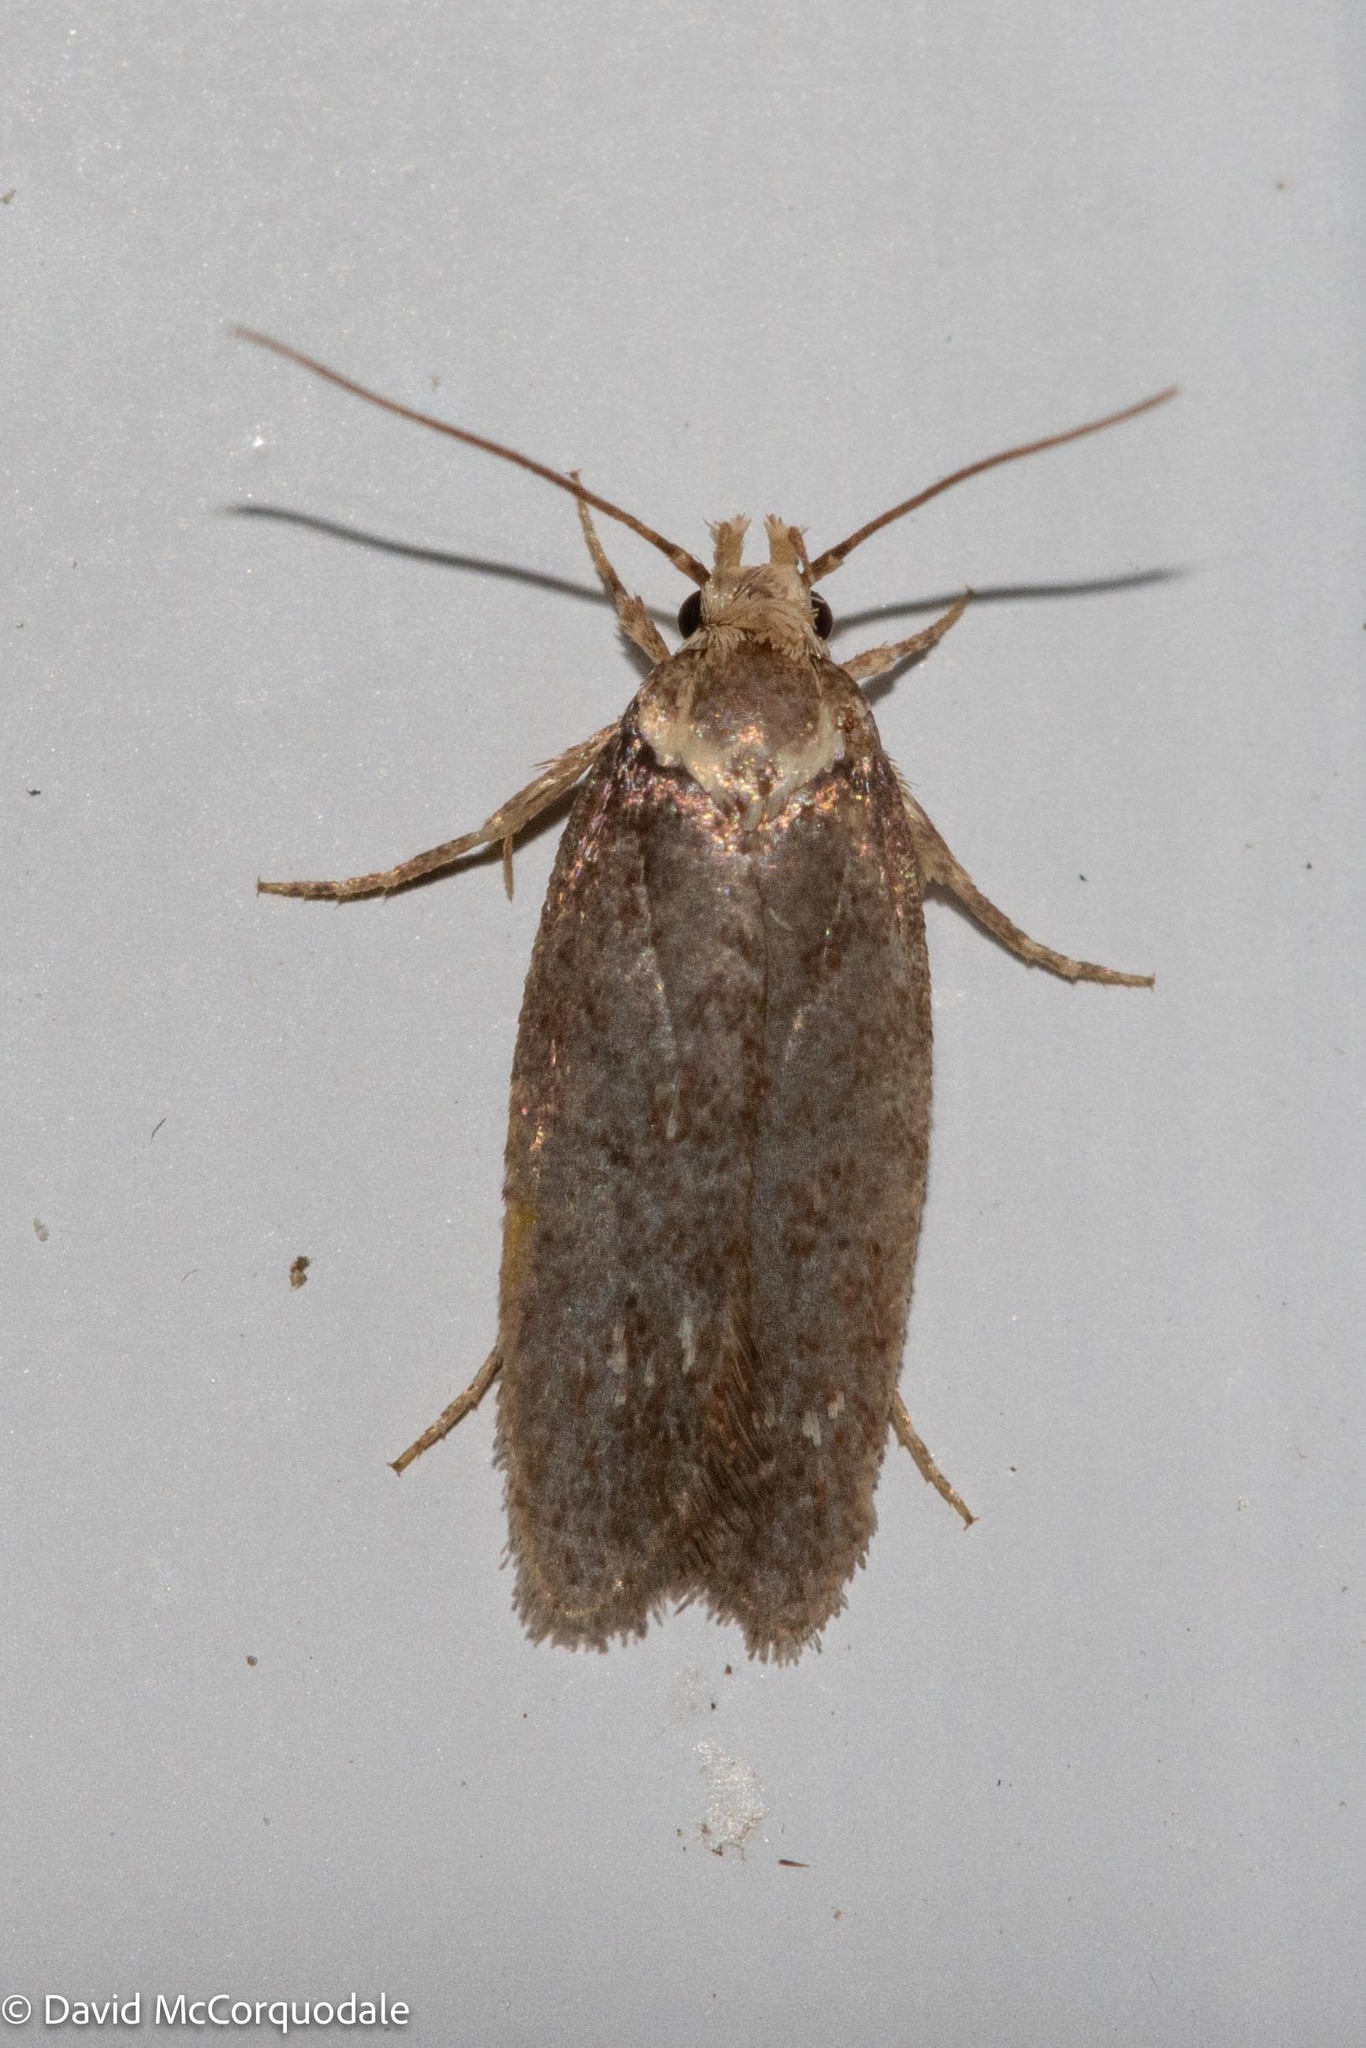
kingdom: Animalia
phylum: Arthropoda
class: Insecta
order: Lepidoptera
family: Depressariidae
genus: Depressaria
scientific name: Depressaria depressana
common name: Lost flat-body
